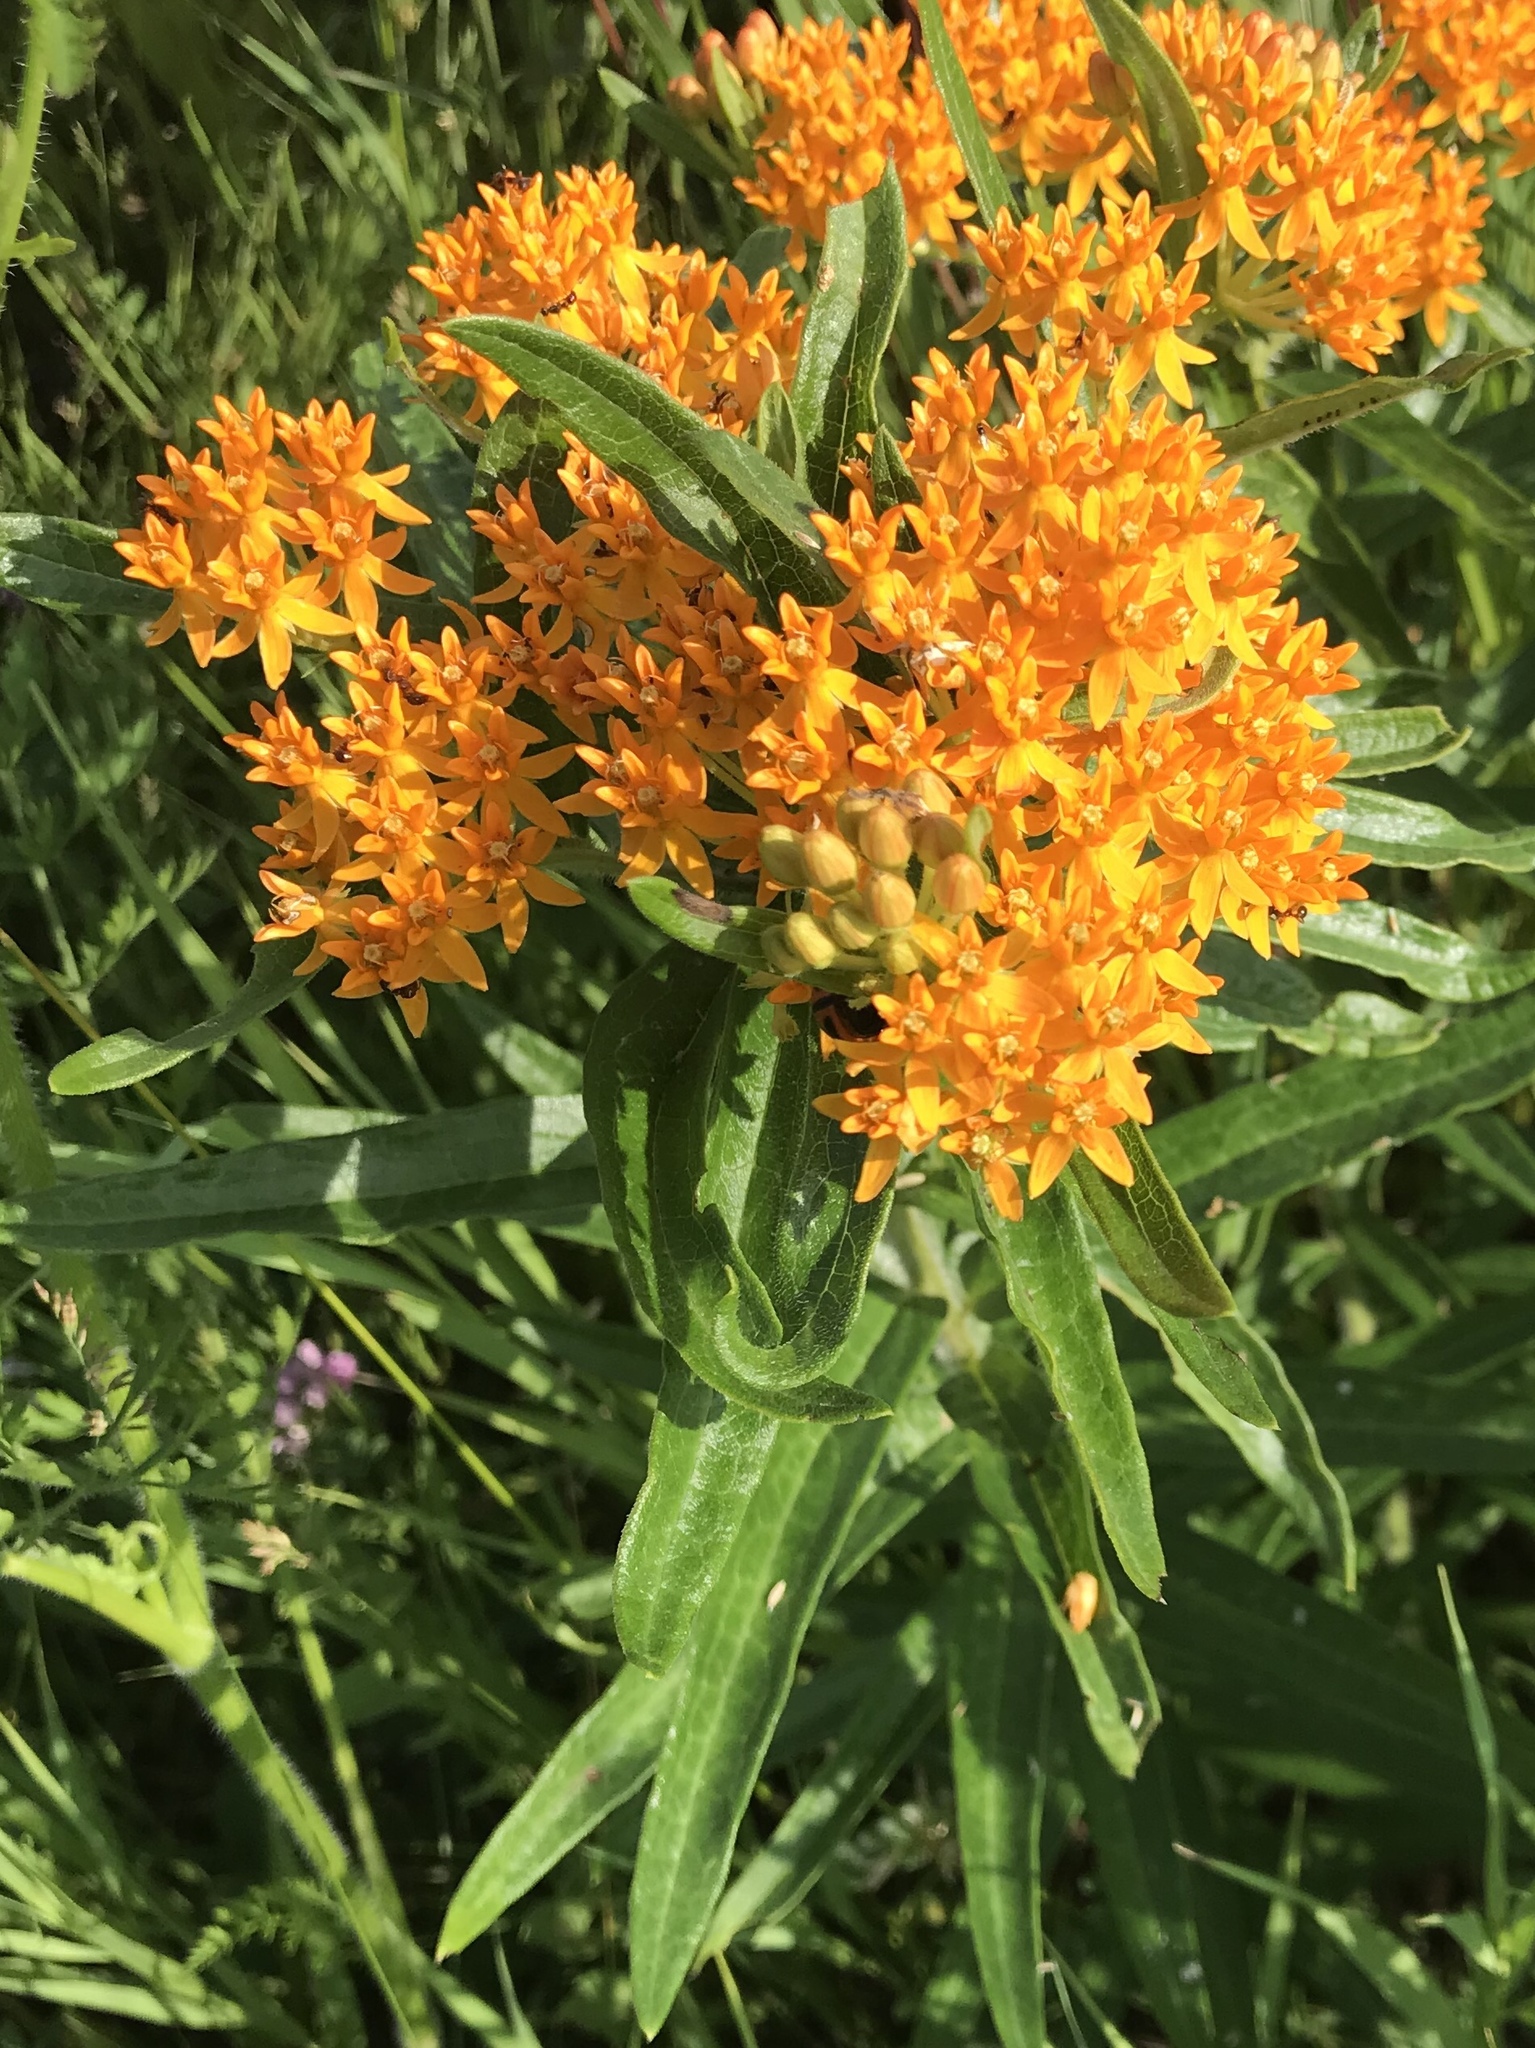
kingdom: Plantae
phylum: Tracheophyta
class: Magnoliopsida
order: Gentianales
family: Apocynaceae
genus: Asclepias
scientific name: Asclepias tuberosa
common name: Butterfly milkweed
